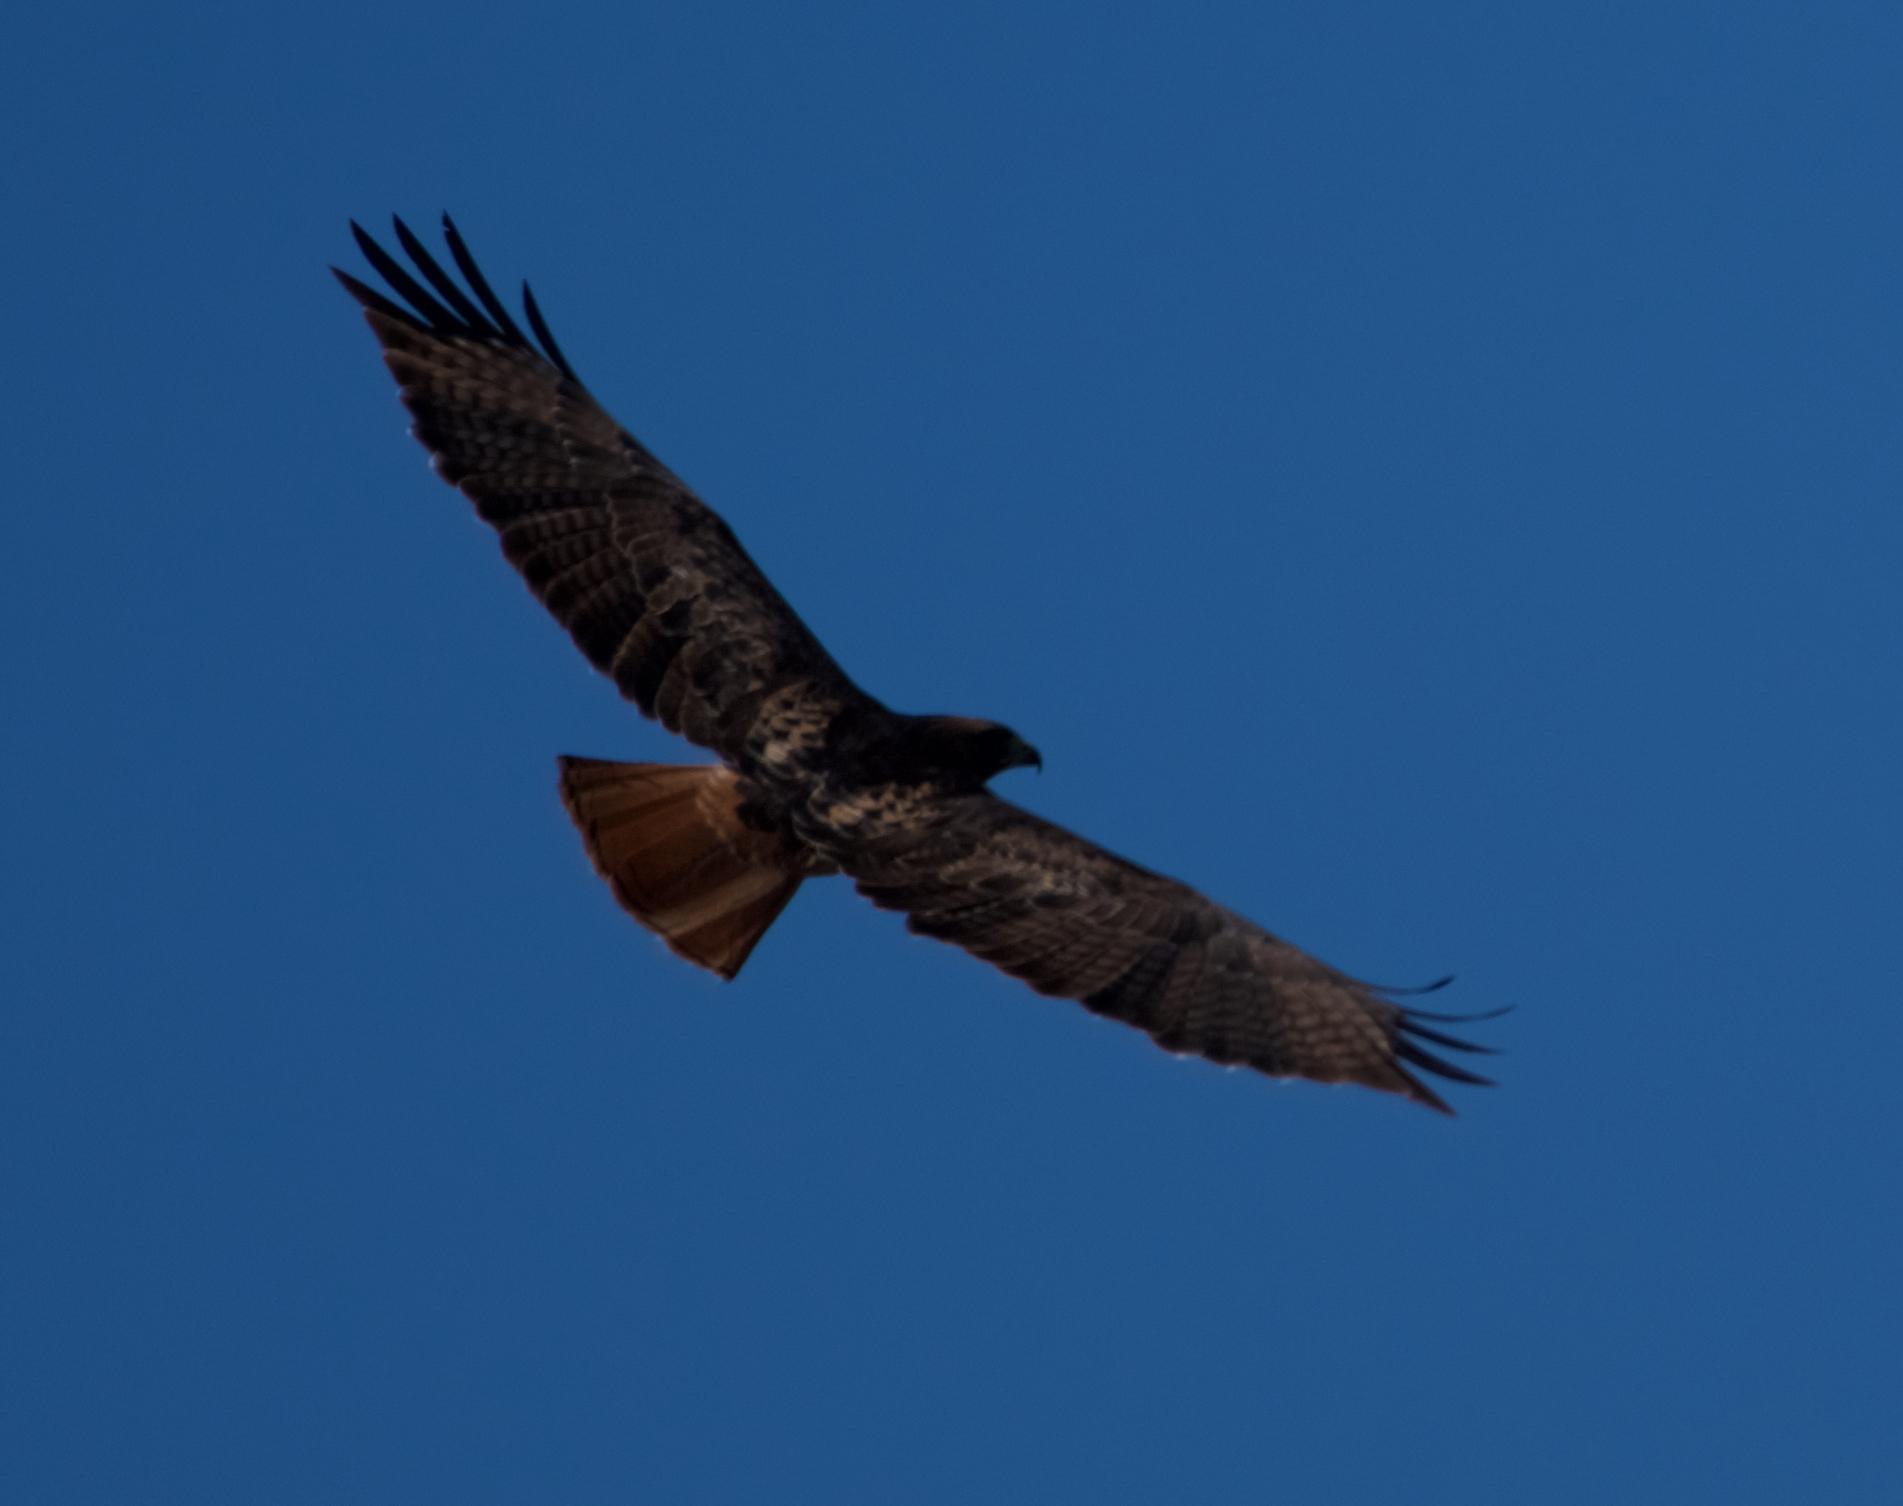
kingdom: Animalia
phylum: Chordata
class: Aves
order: Accipitriformes
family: Accipitridae
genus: Buteo
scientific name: Buteo jamaicensis
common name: Red-tailed hawk
